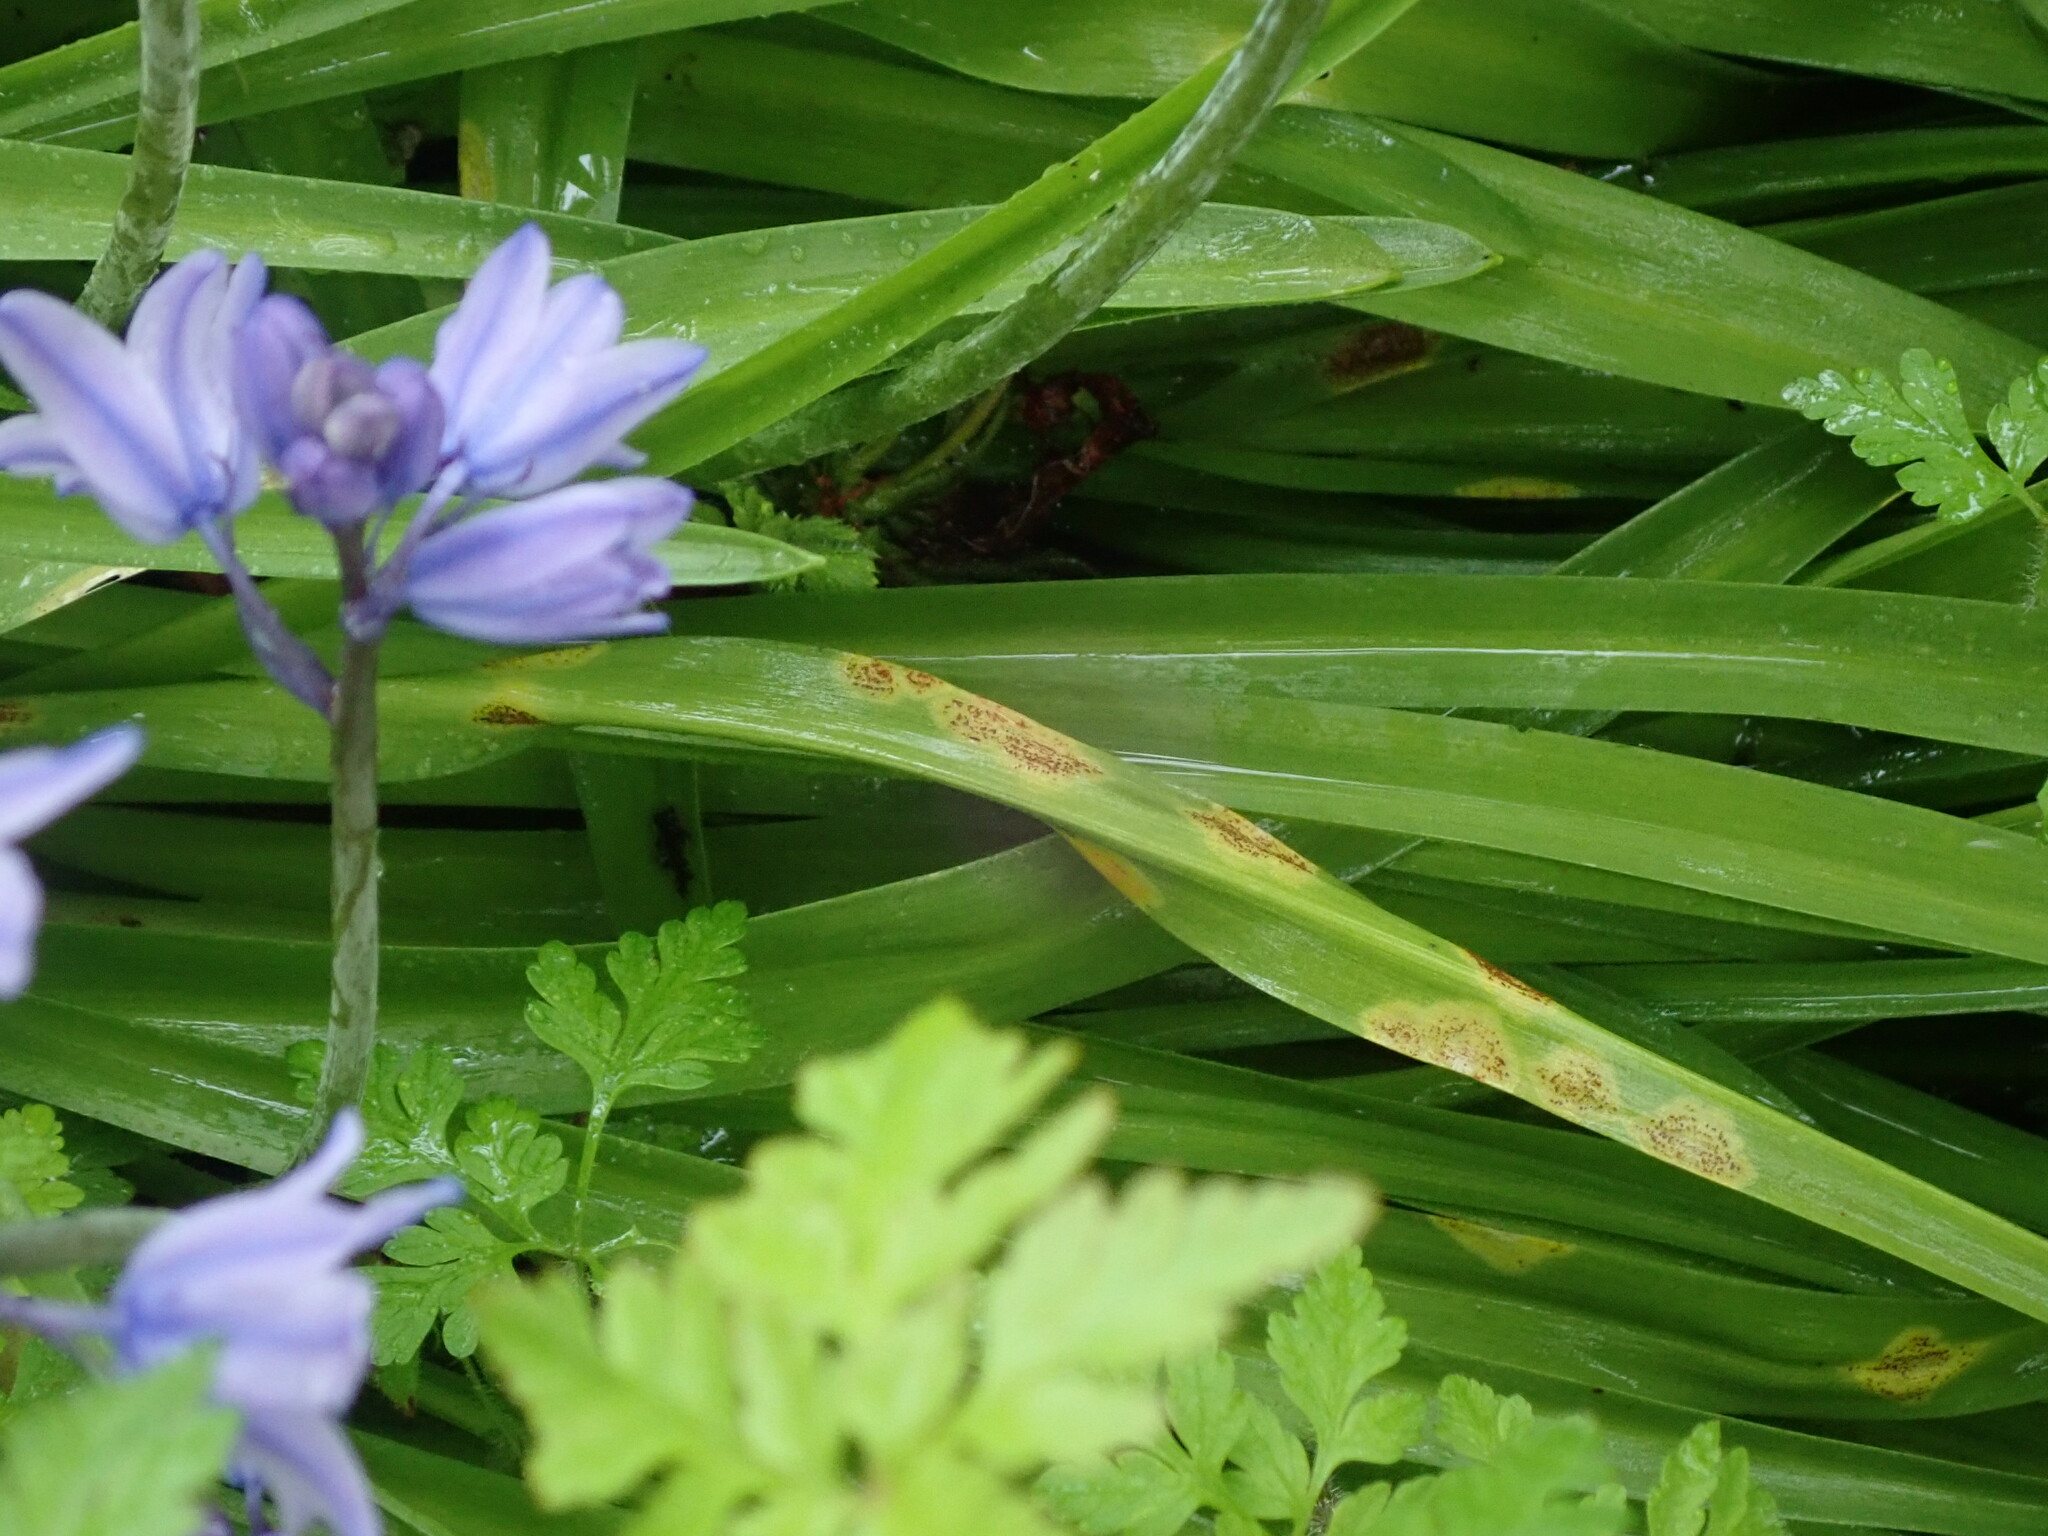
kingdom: Fungi
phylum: Basidiomycota
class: Pucciniomycetes
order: Pucciniales
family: Pucciniaceae
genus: Uromyces
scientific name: Uromyces hyacinthi
